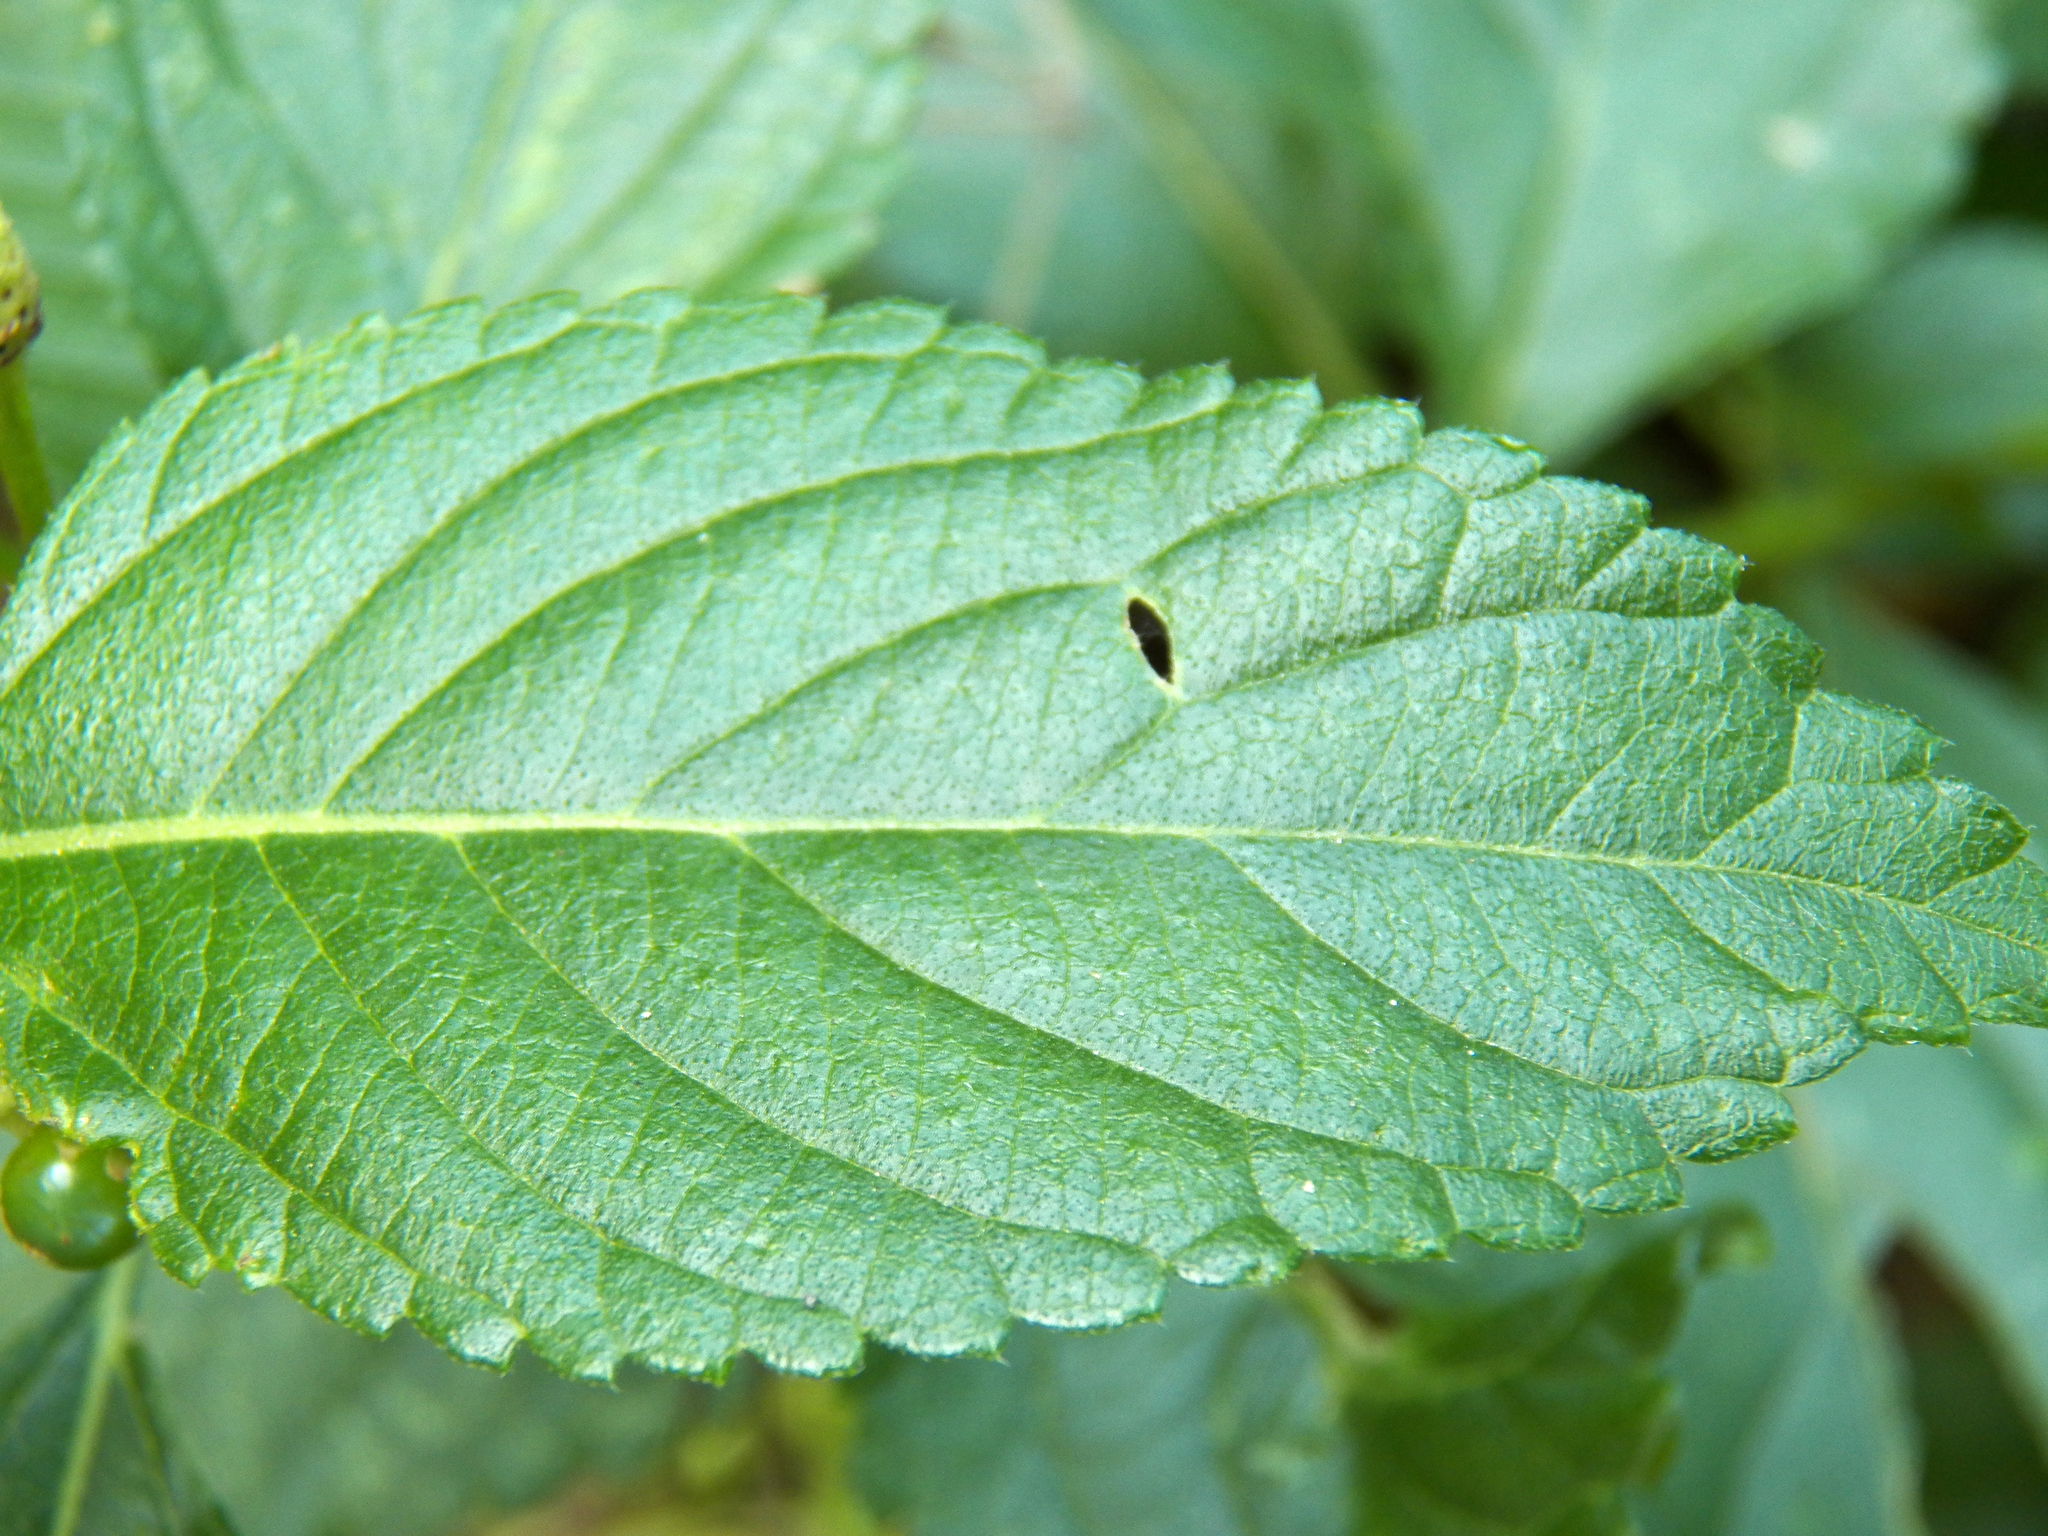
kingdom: Plantae
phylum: Tracheophyta
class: Magnoliopsida
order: Lamiales
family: Verbenaceae
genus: Lantana
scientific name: Lantana strigocamara
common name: Lantana
